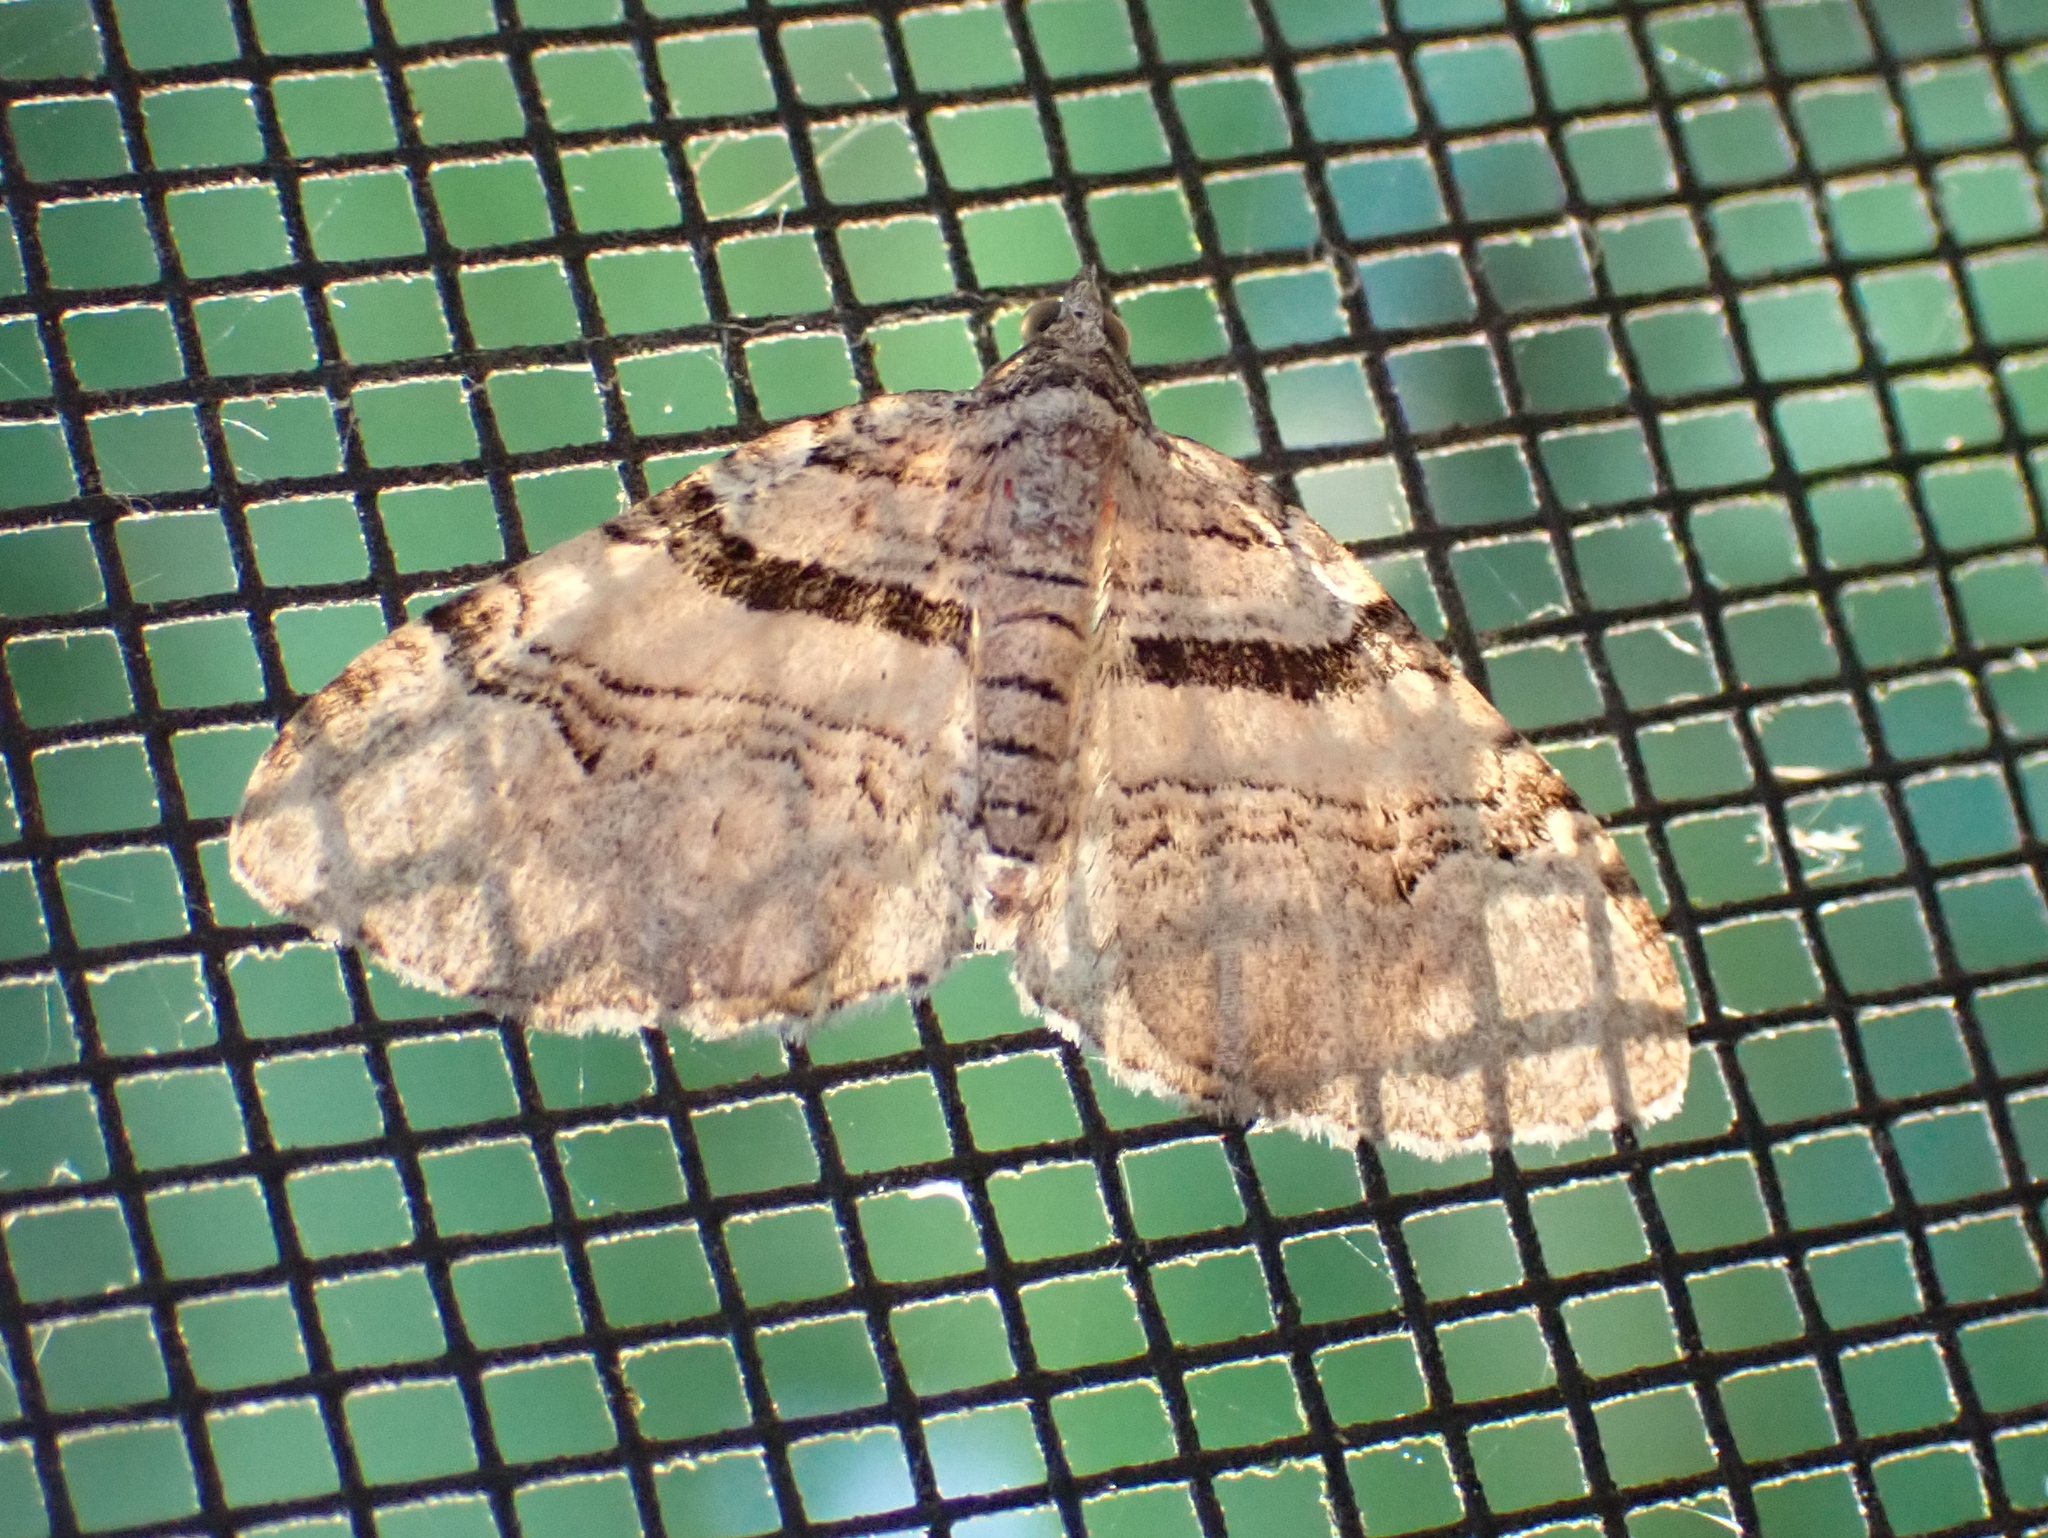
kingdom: Animalia
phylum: Arthropoda
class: Insecta
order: Lepidoptera
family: Geometridae
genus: Xanthorhoe
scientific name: Xanthorhoe labradorensis
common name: Labrador carpet
